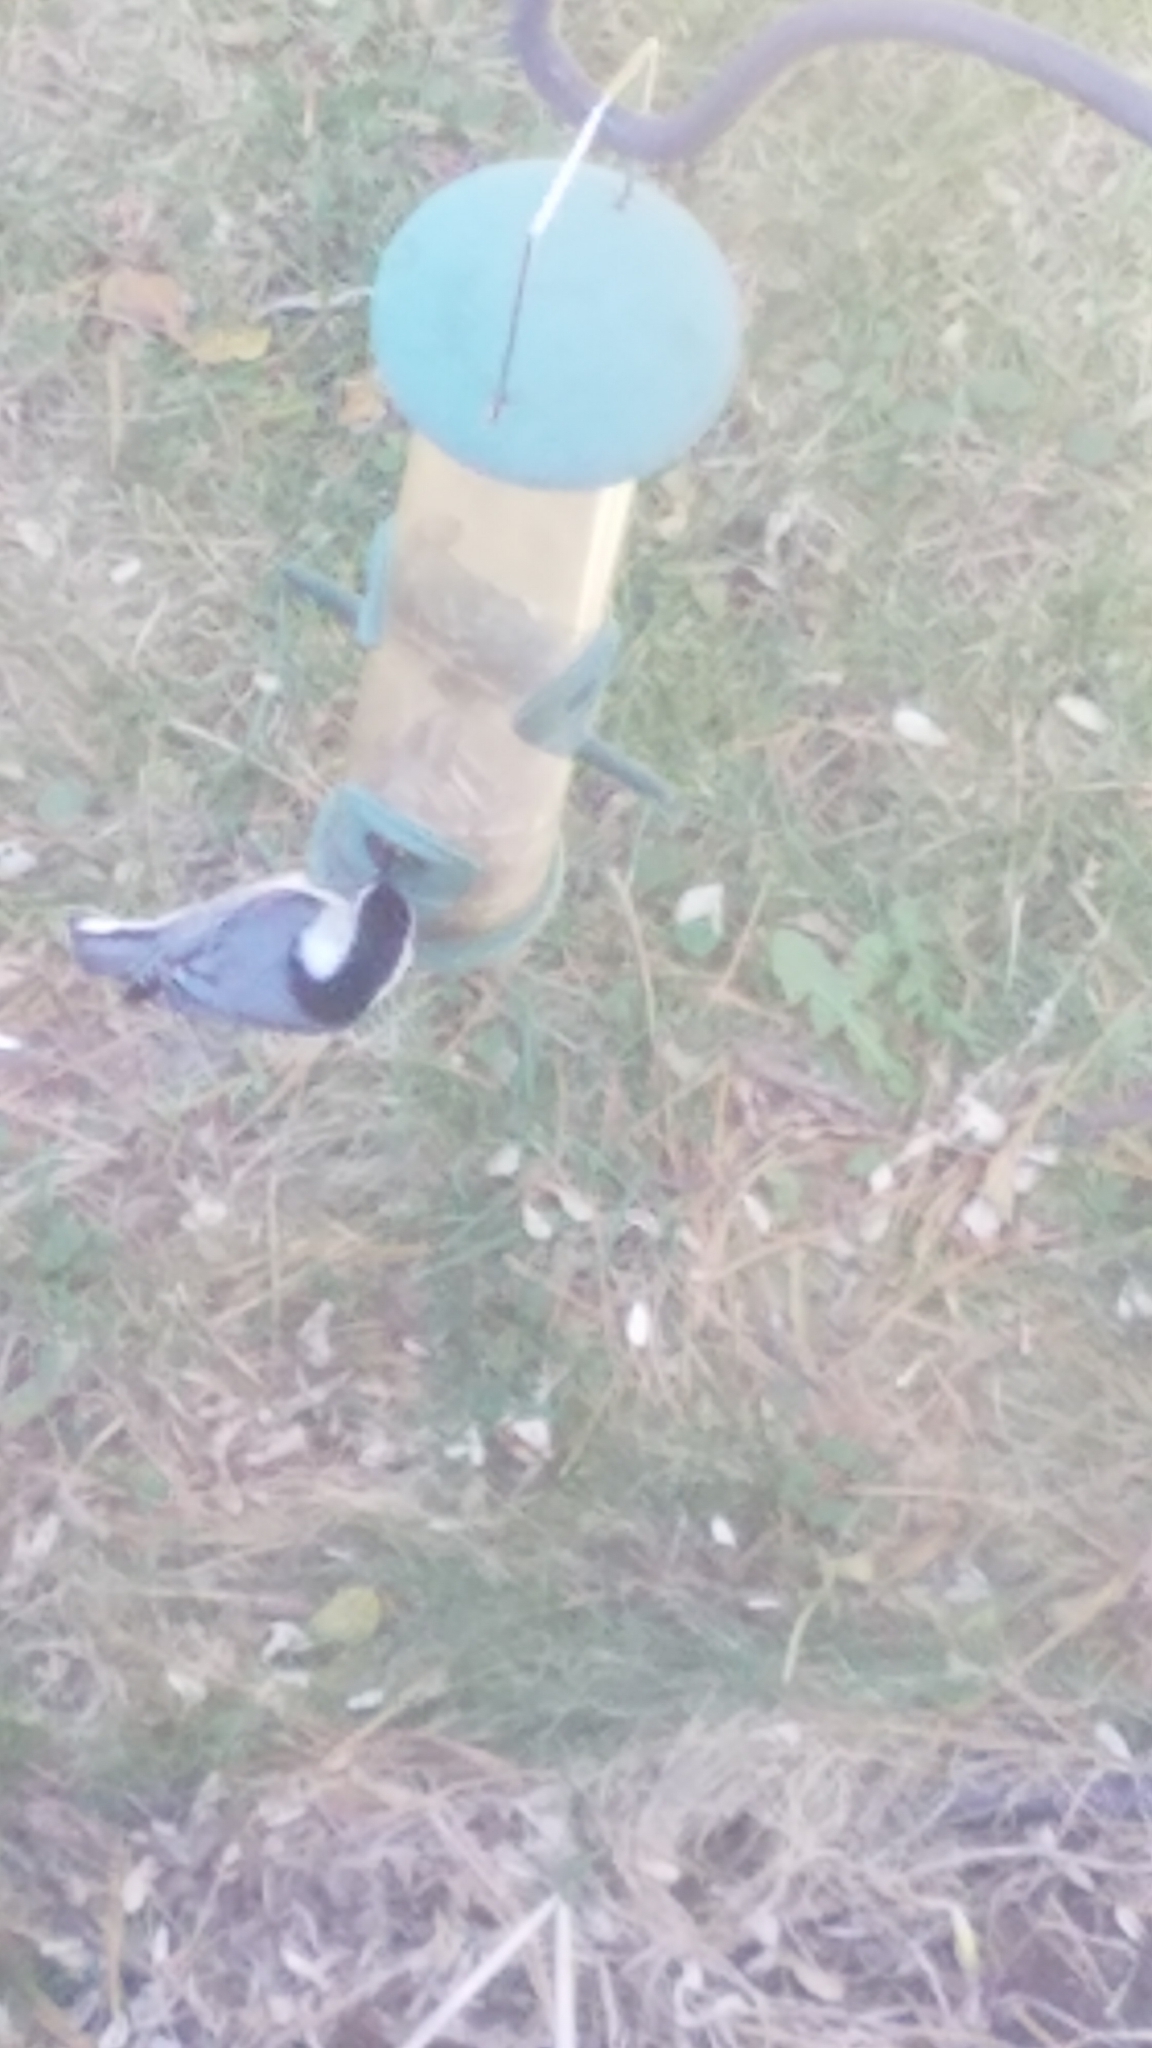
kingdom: Animalia
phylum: Chordata
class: Aves
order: Passeriformes
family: Sittidae
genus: Sitta
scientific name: Sitta carolinensis
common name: White-breasted nuthatch
